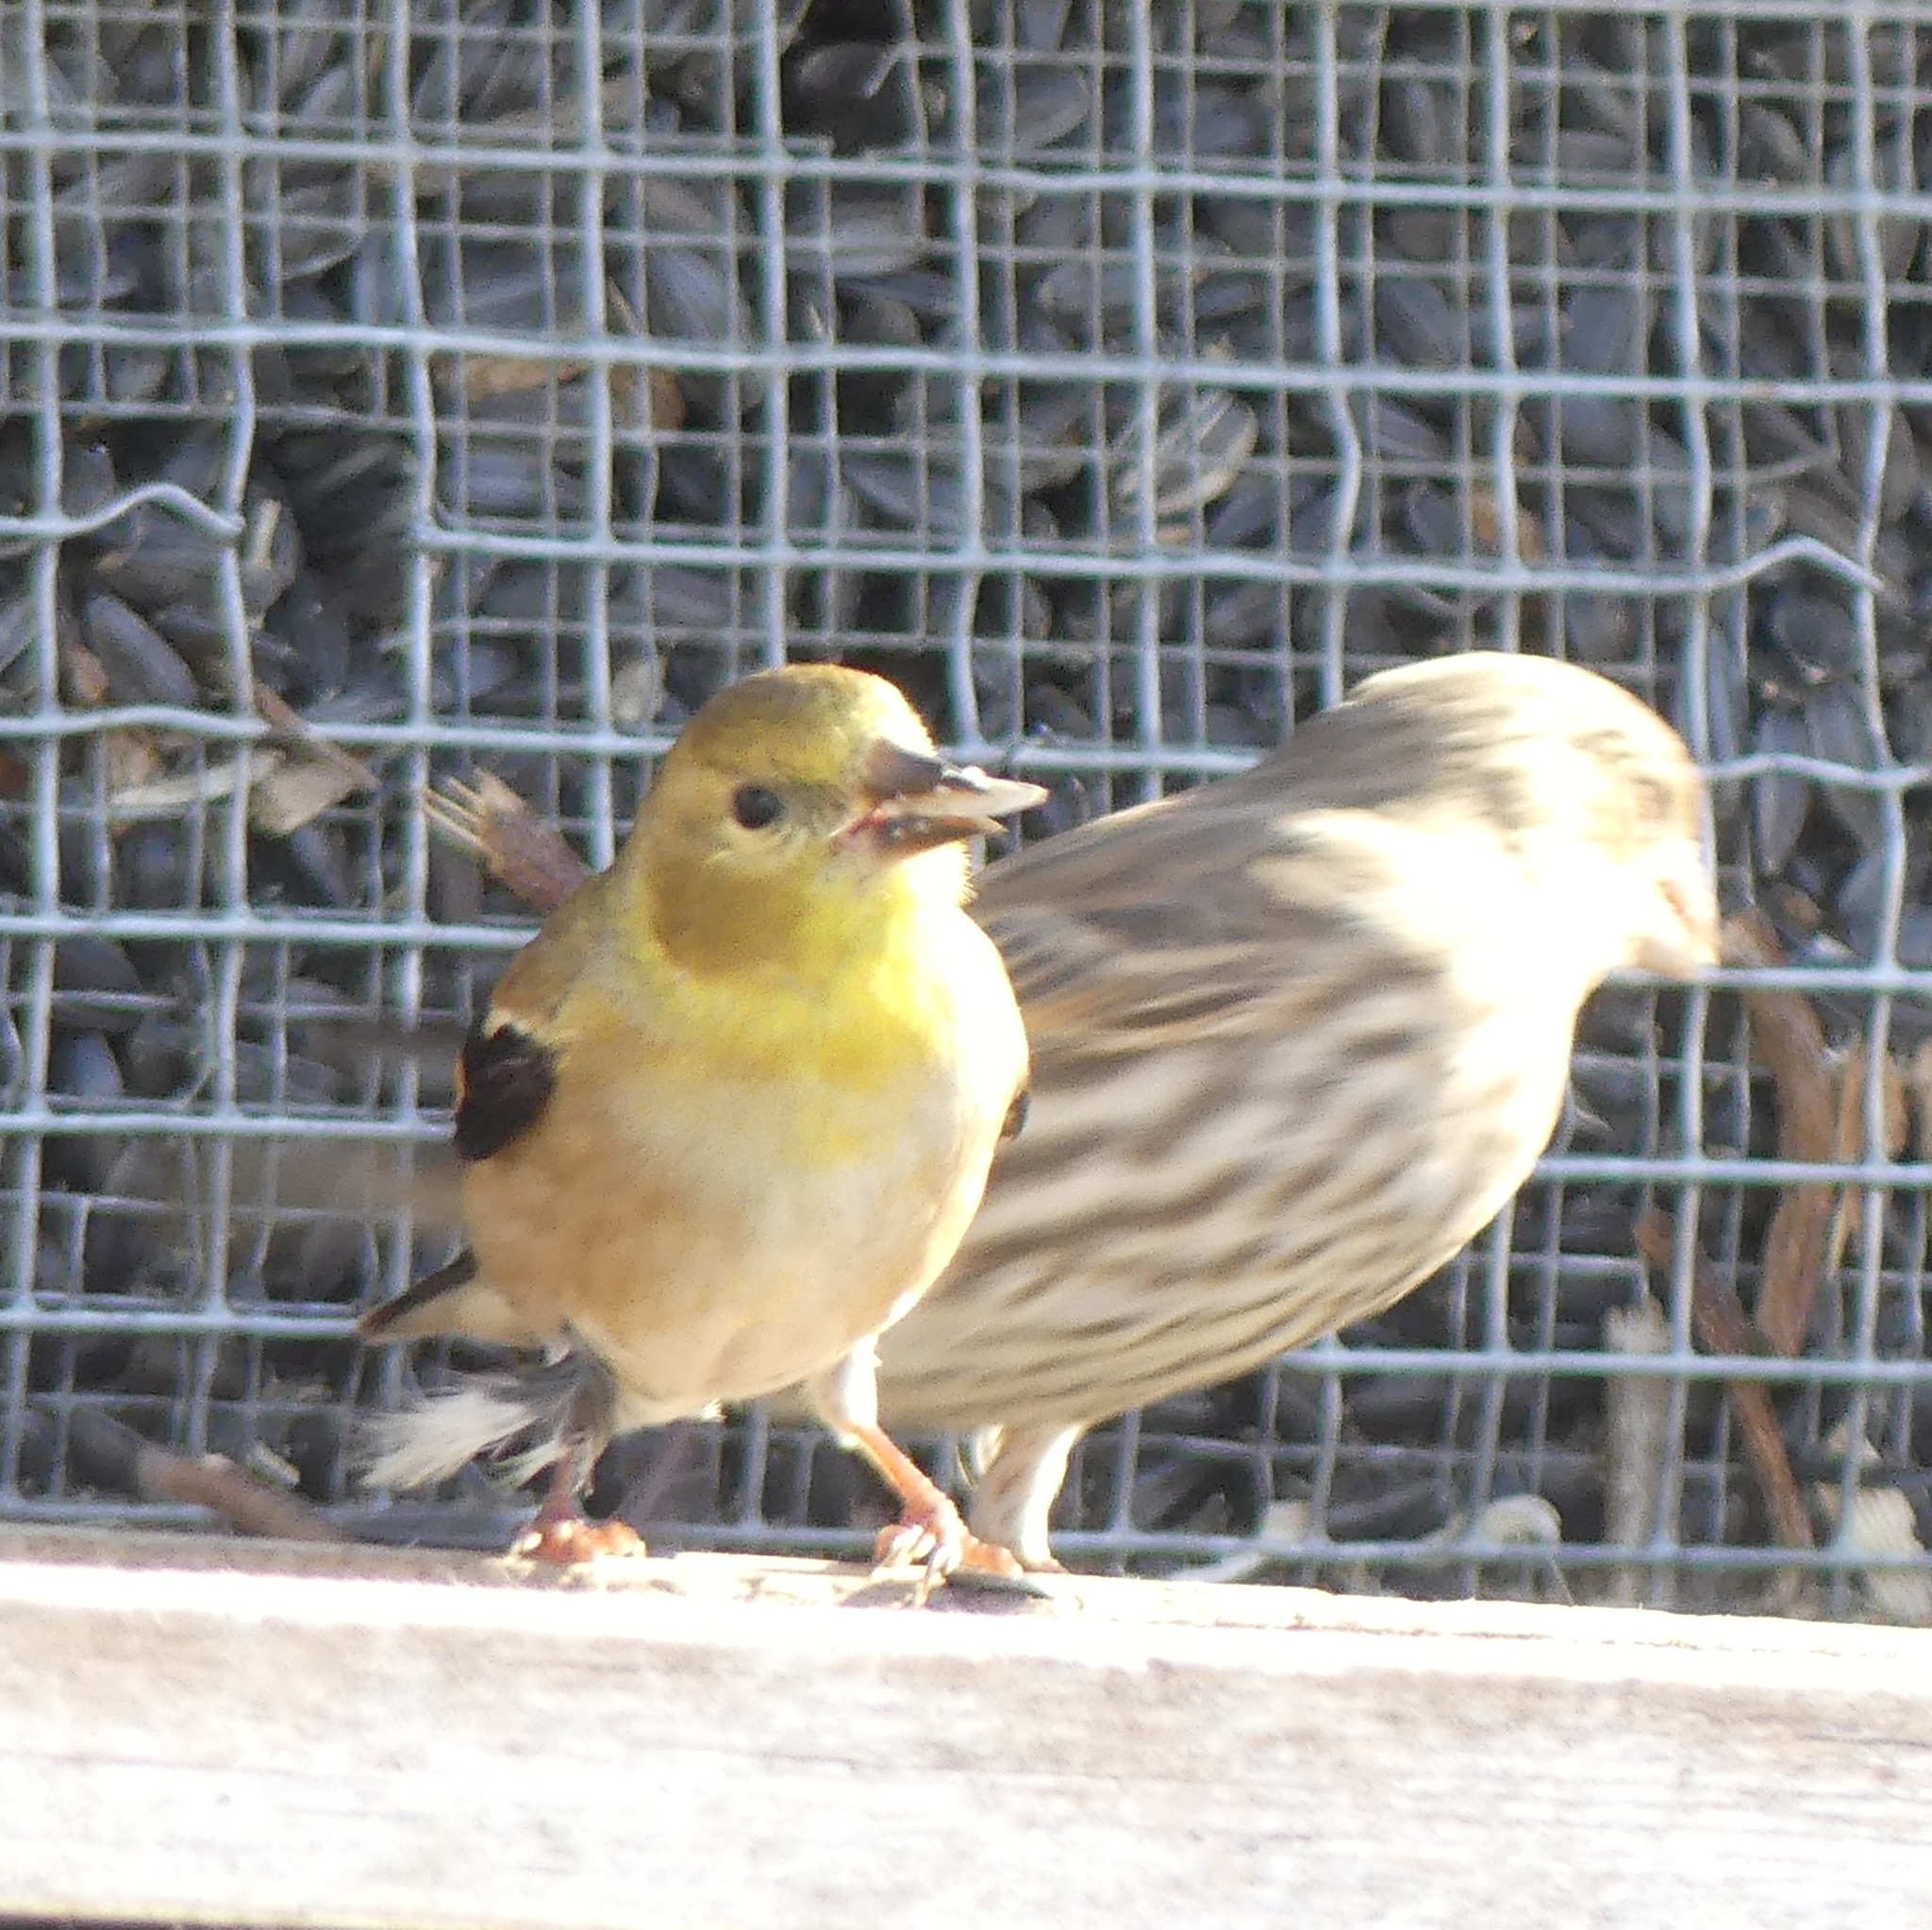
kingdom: Animalia
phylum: Chordata
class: Aves
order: Passeriformes
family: Fringillidae
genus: Spinus
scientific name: Spinus tristis
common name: American goldfinch
